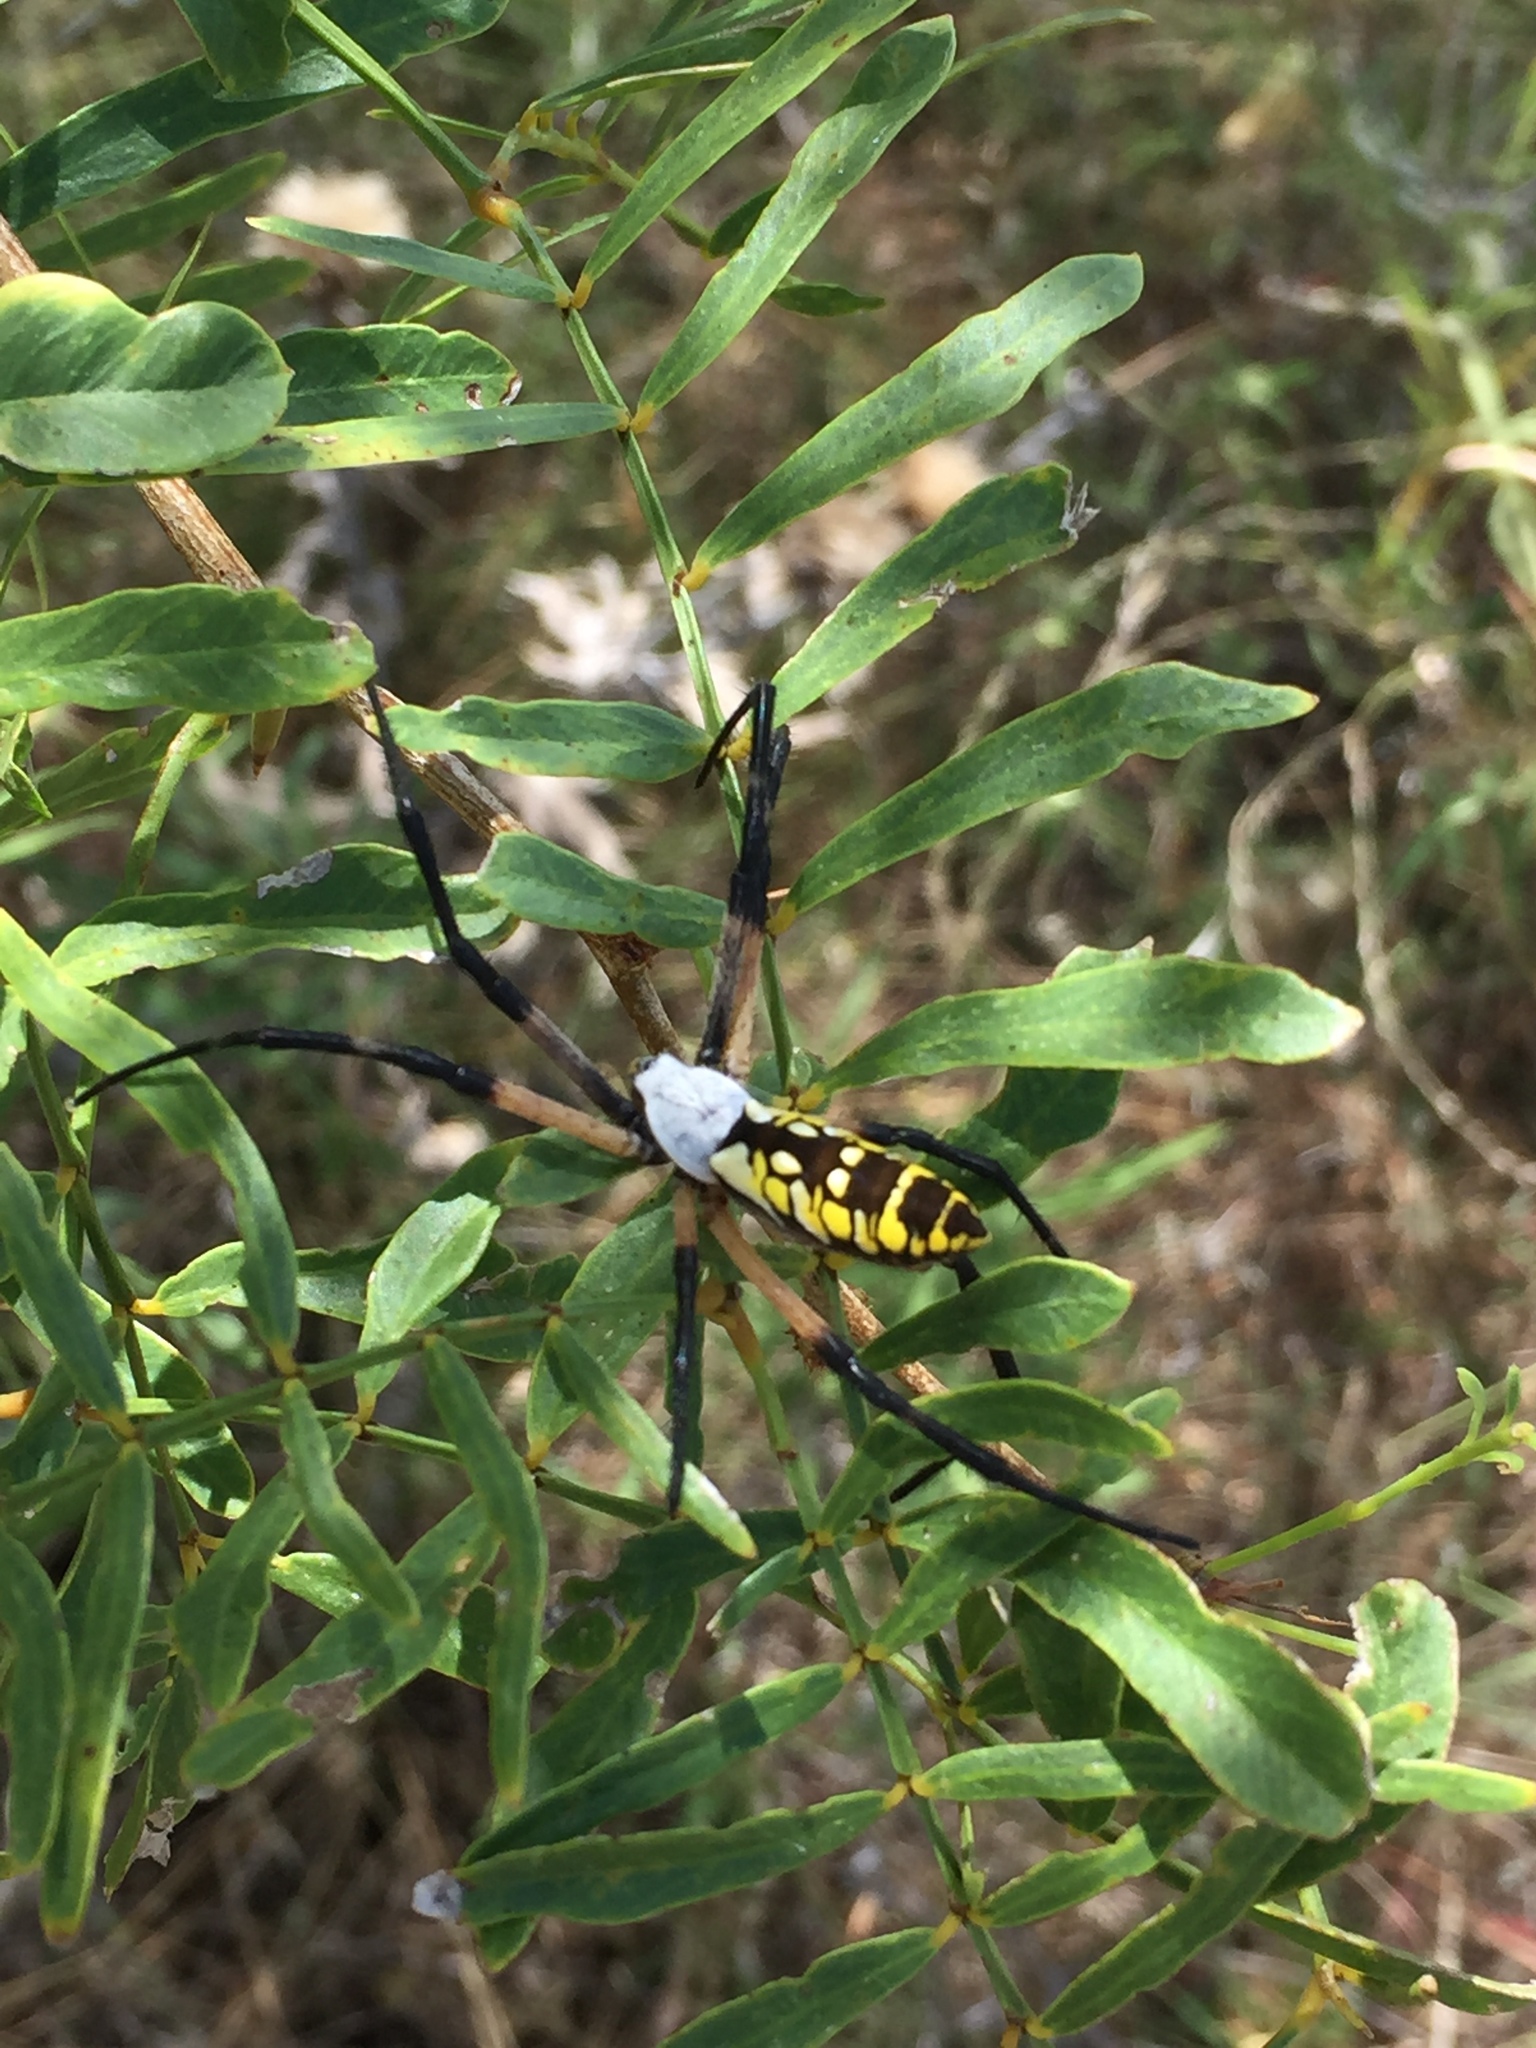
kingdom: Animalia
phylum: Arthropoda
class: Arachnida
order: Araneae
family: Araneidae
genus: Argiope
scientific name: Argiope aurantia
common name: Orb weavers
